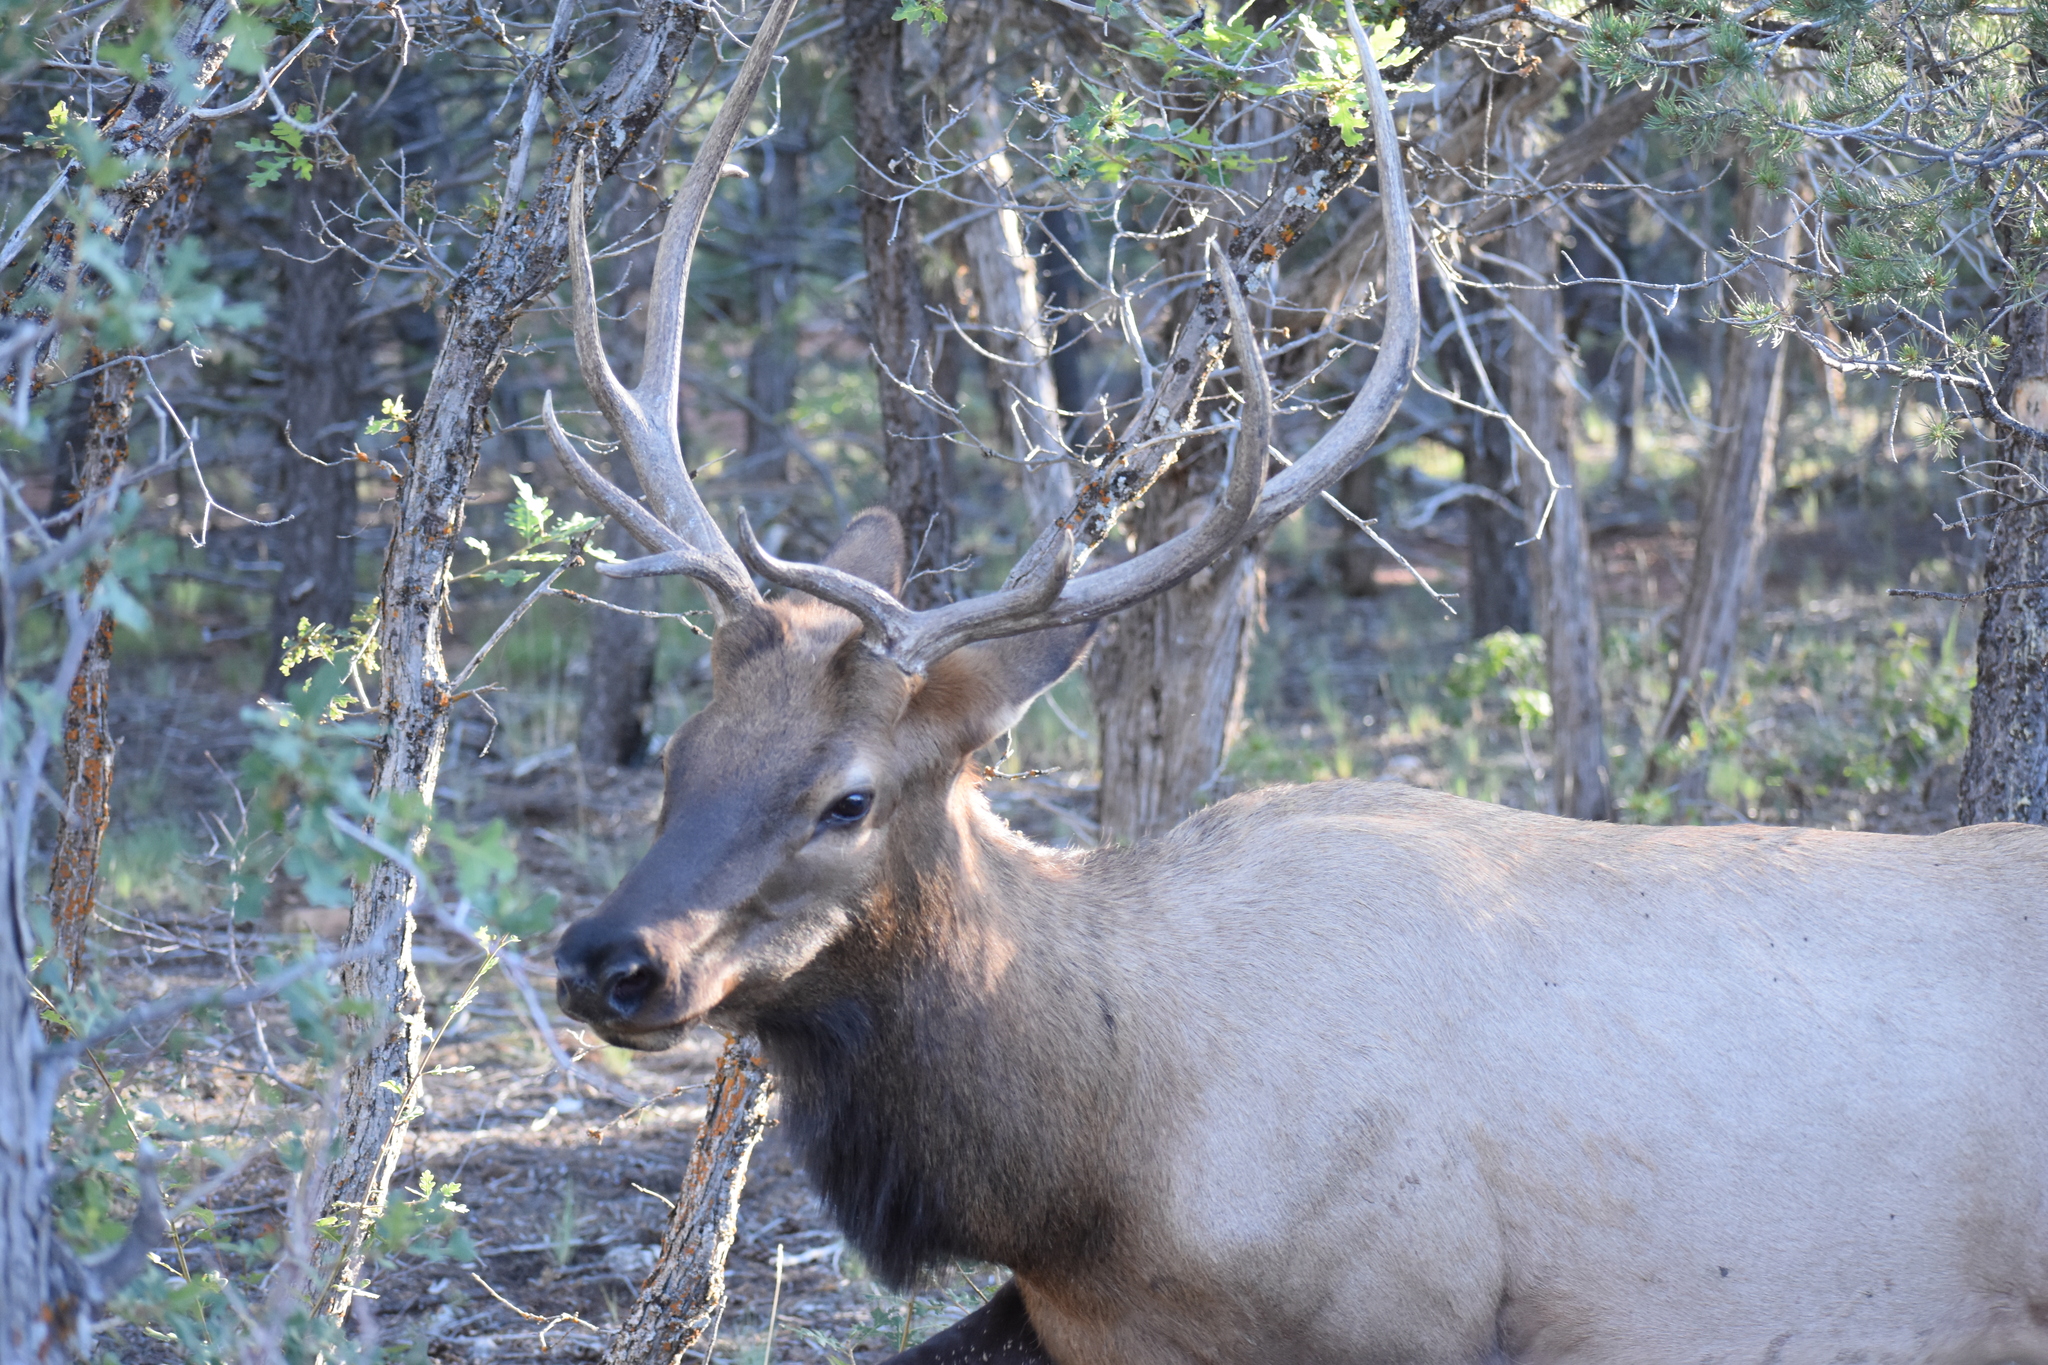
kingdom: Animalia
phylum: Chordata
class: Mammalia
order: Artiodactyla
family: Cervidae
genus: Cervus
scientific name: Cervus elaphus
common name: Red deer
